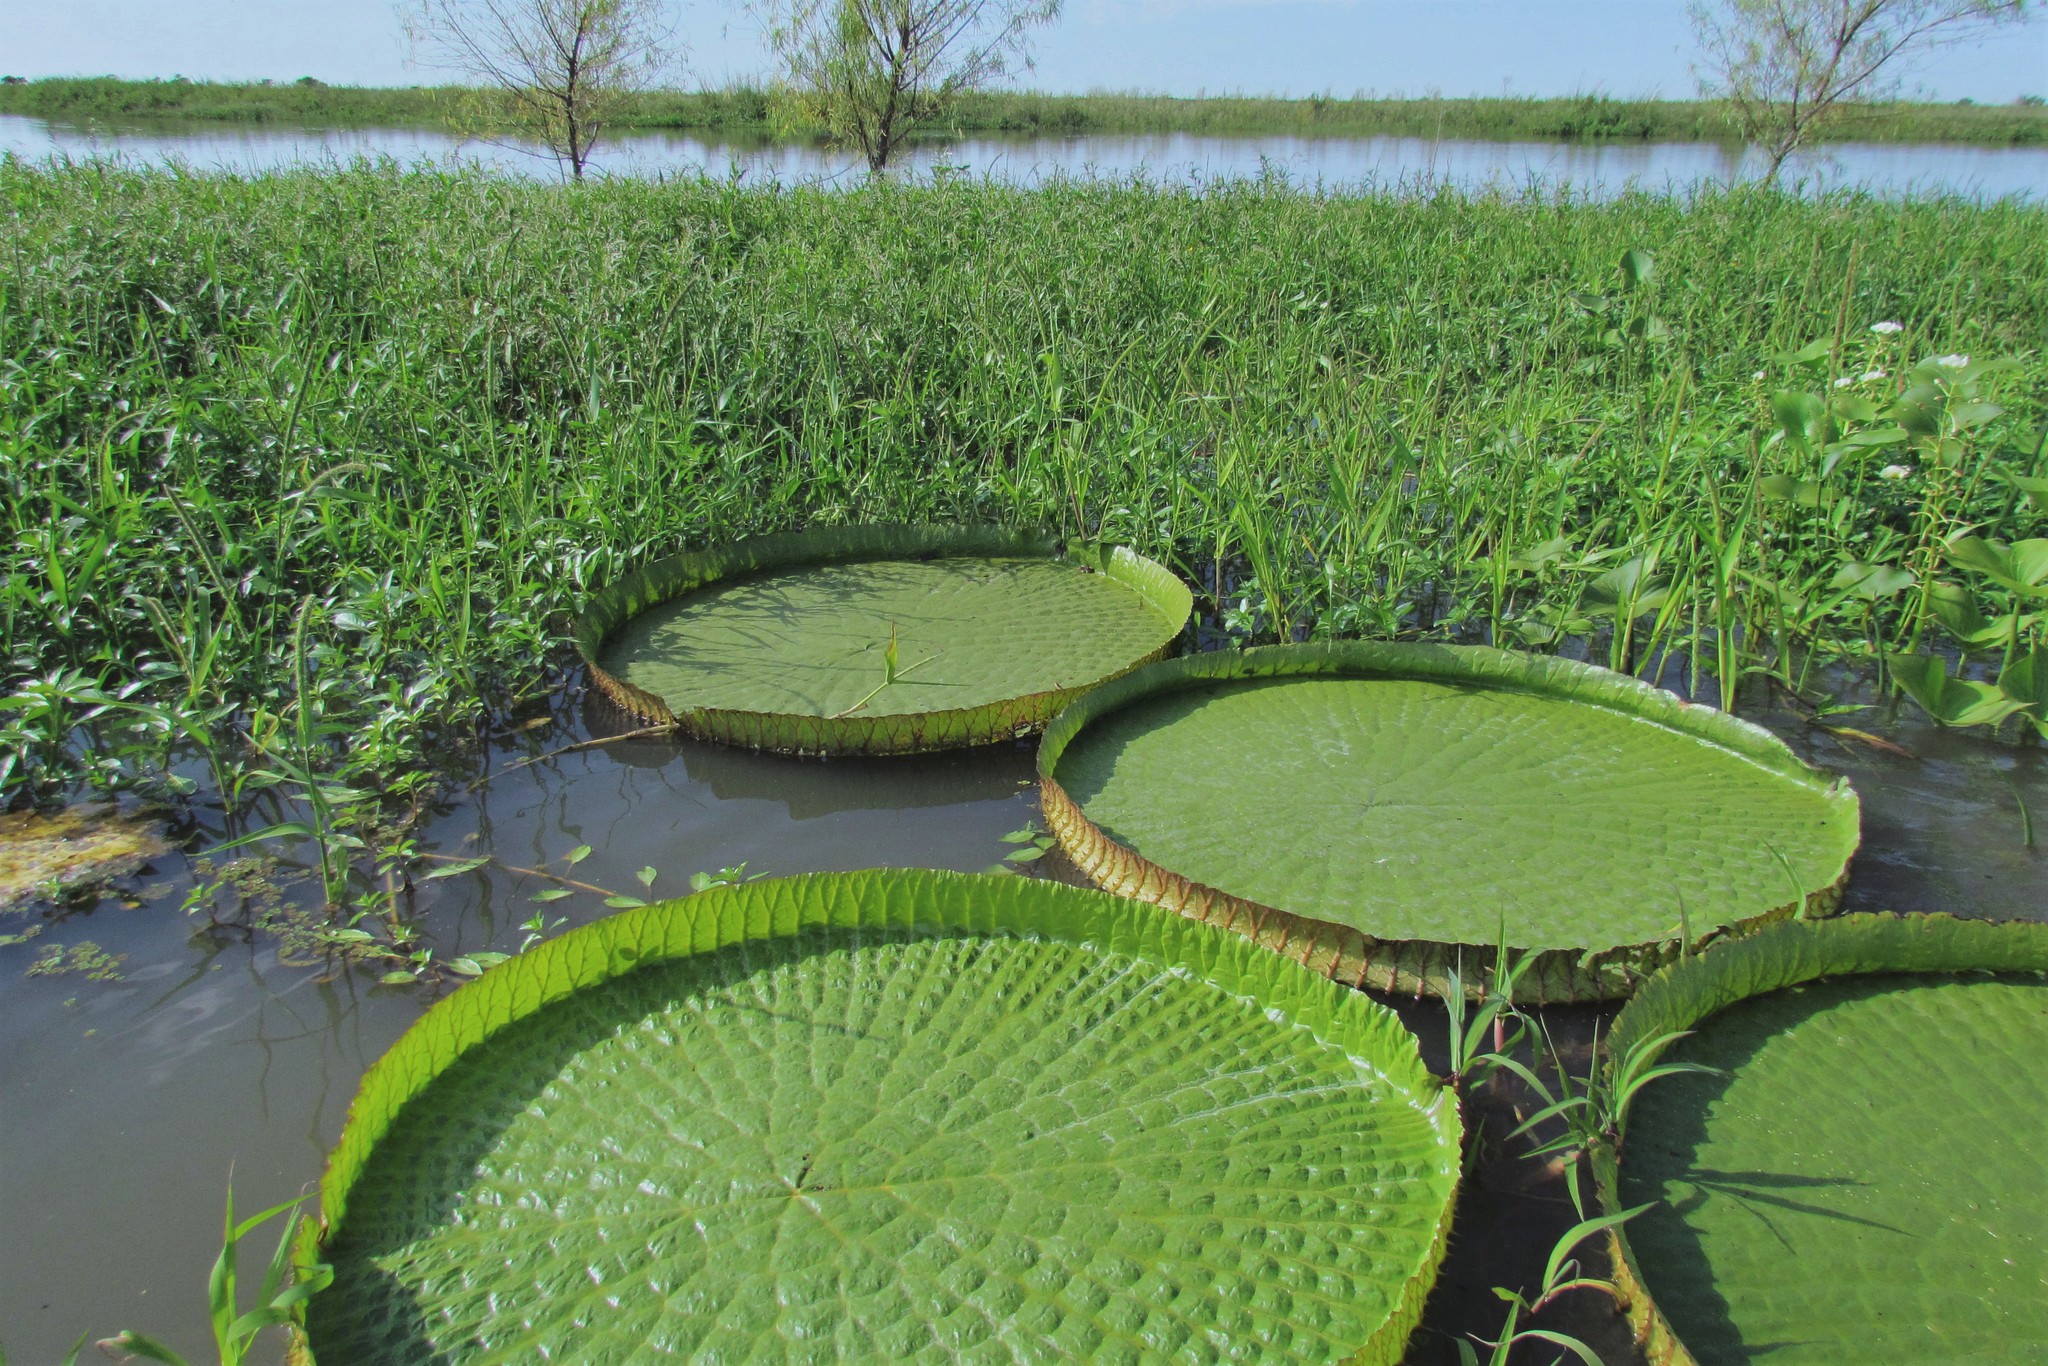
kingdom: Plantae
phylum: Tracheophyta
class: Magnoliopsida
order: Nymphaeales
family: Nymphaeaceae
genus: Victoria
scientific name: Victoria cruziana
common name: Santa cruz water-lily
